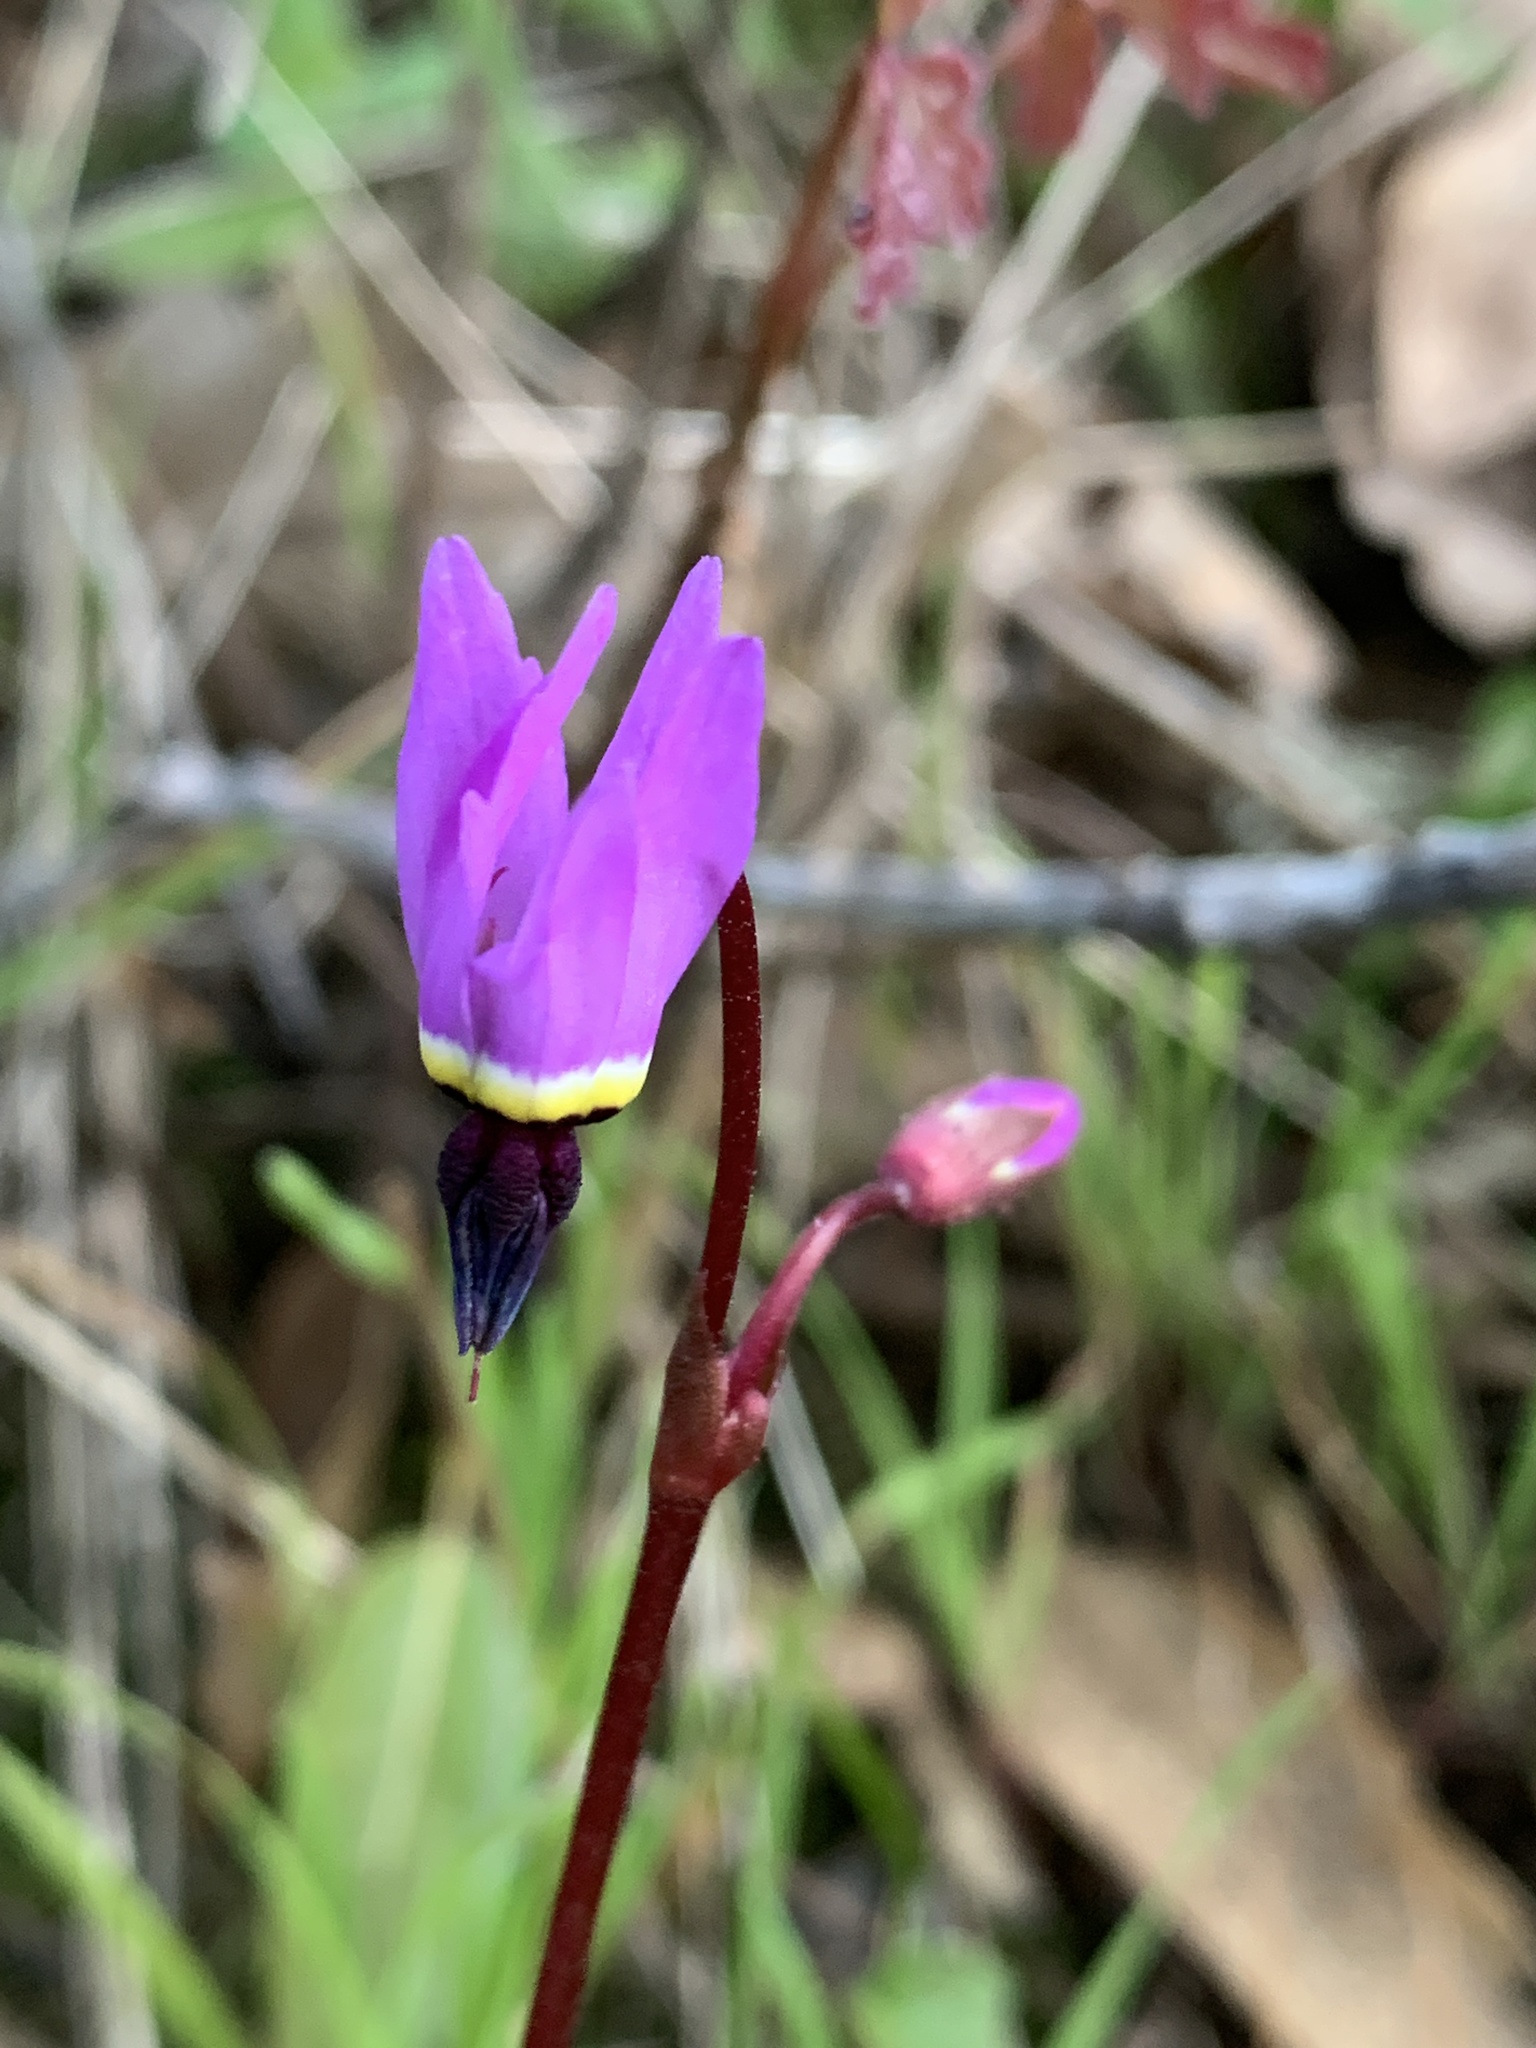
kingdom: Plantae
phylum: Tracheophyta
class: Magnoliopsida
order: Ericales
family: Primulaceae
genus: Dodecatheon
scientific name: Dodecatheon hendersonii
